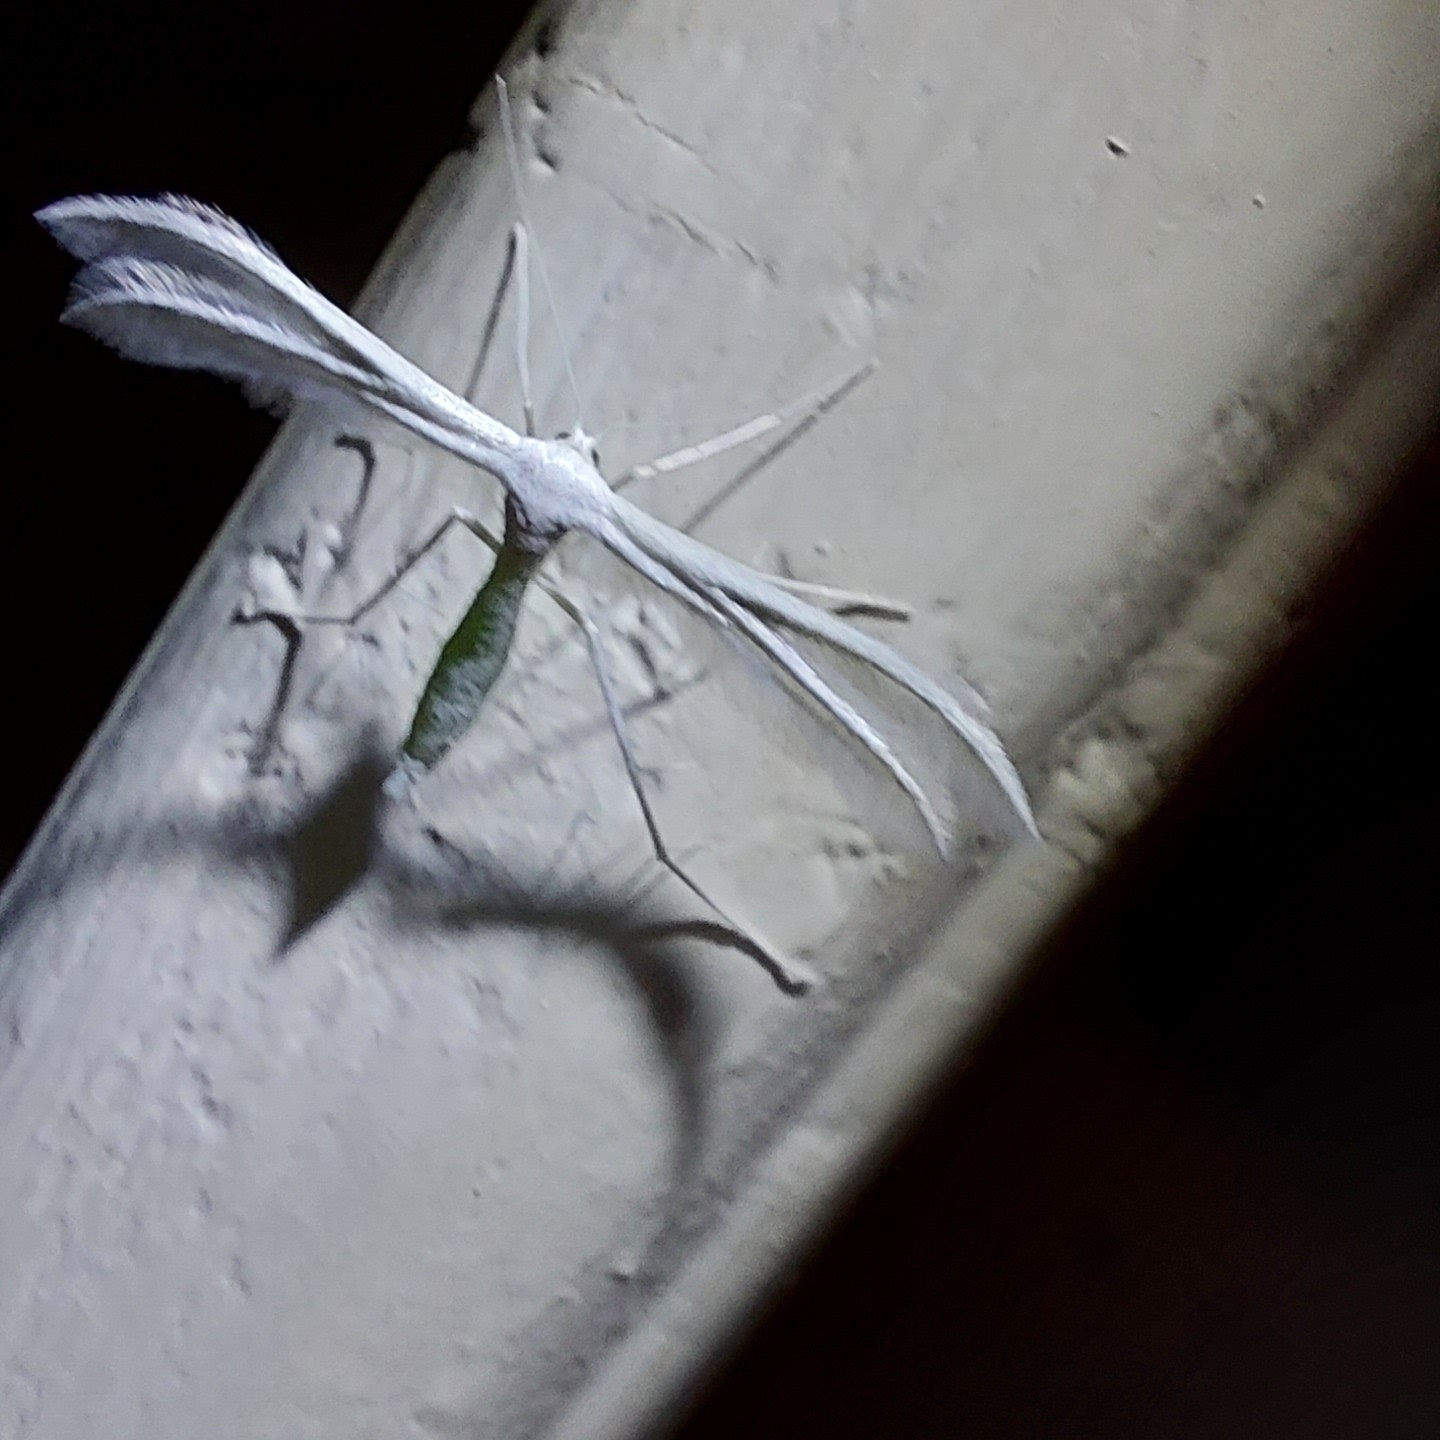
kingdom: Animalia
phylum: Arthropoda
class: Insecta
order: Lepidoptera
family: Pterophoridae
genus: Pterophorus
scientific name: Pterophorus pentadactyla
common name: White plume moth
